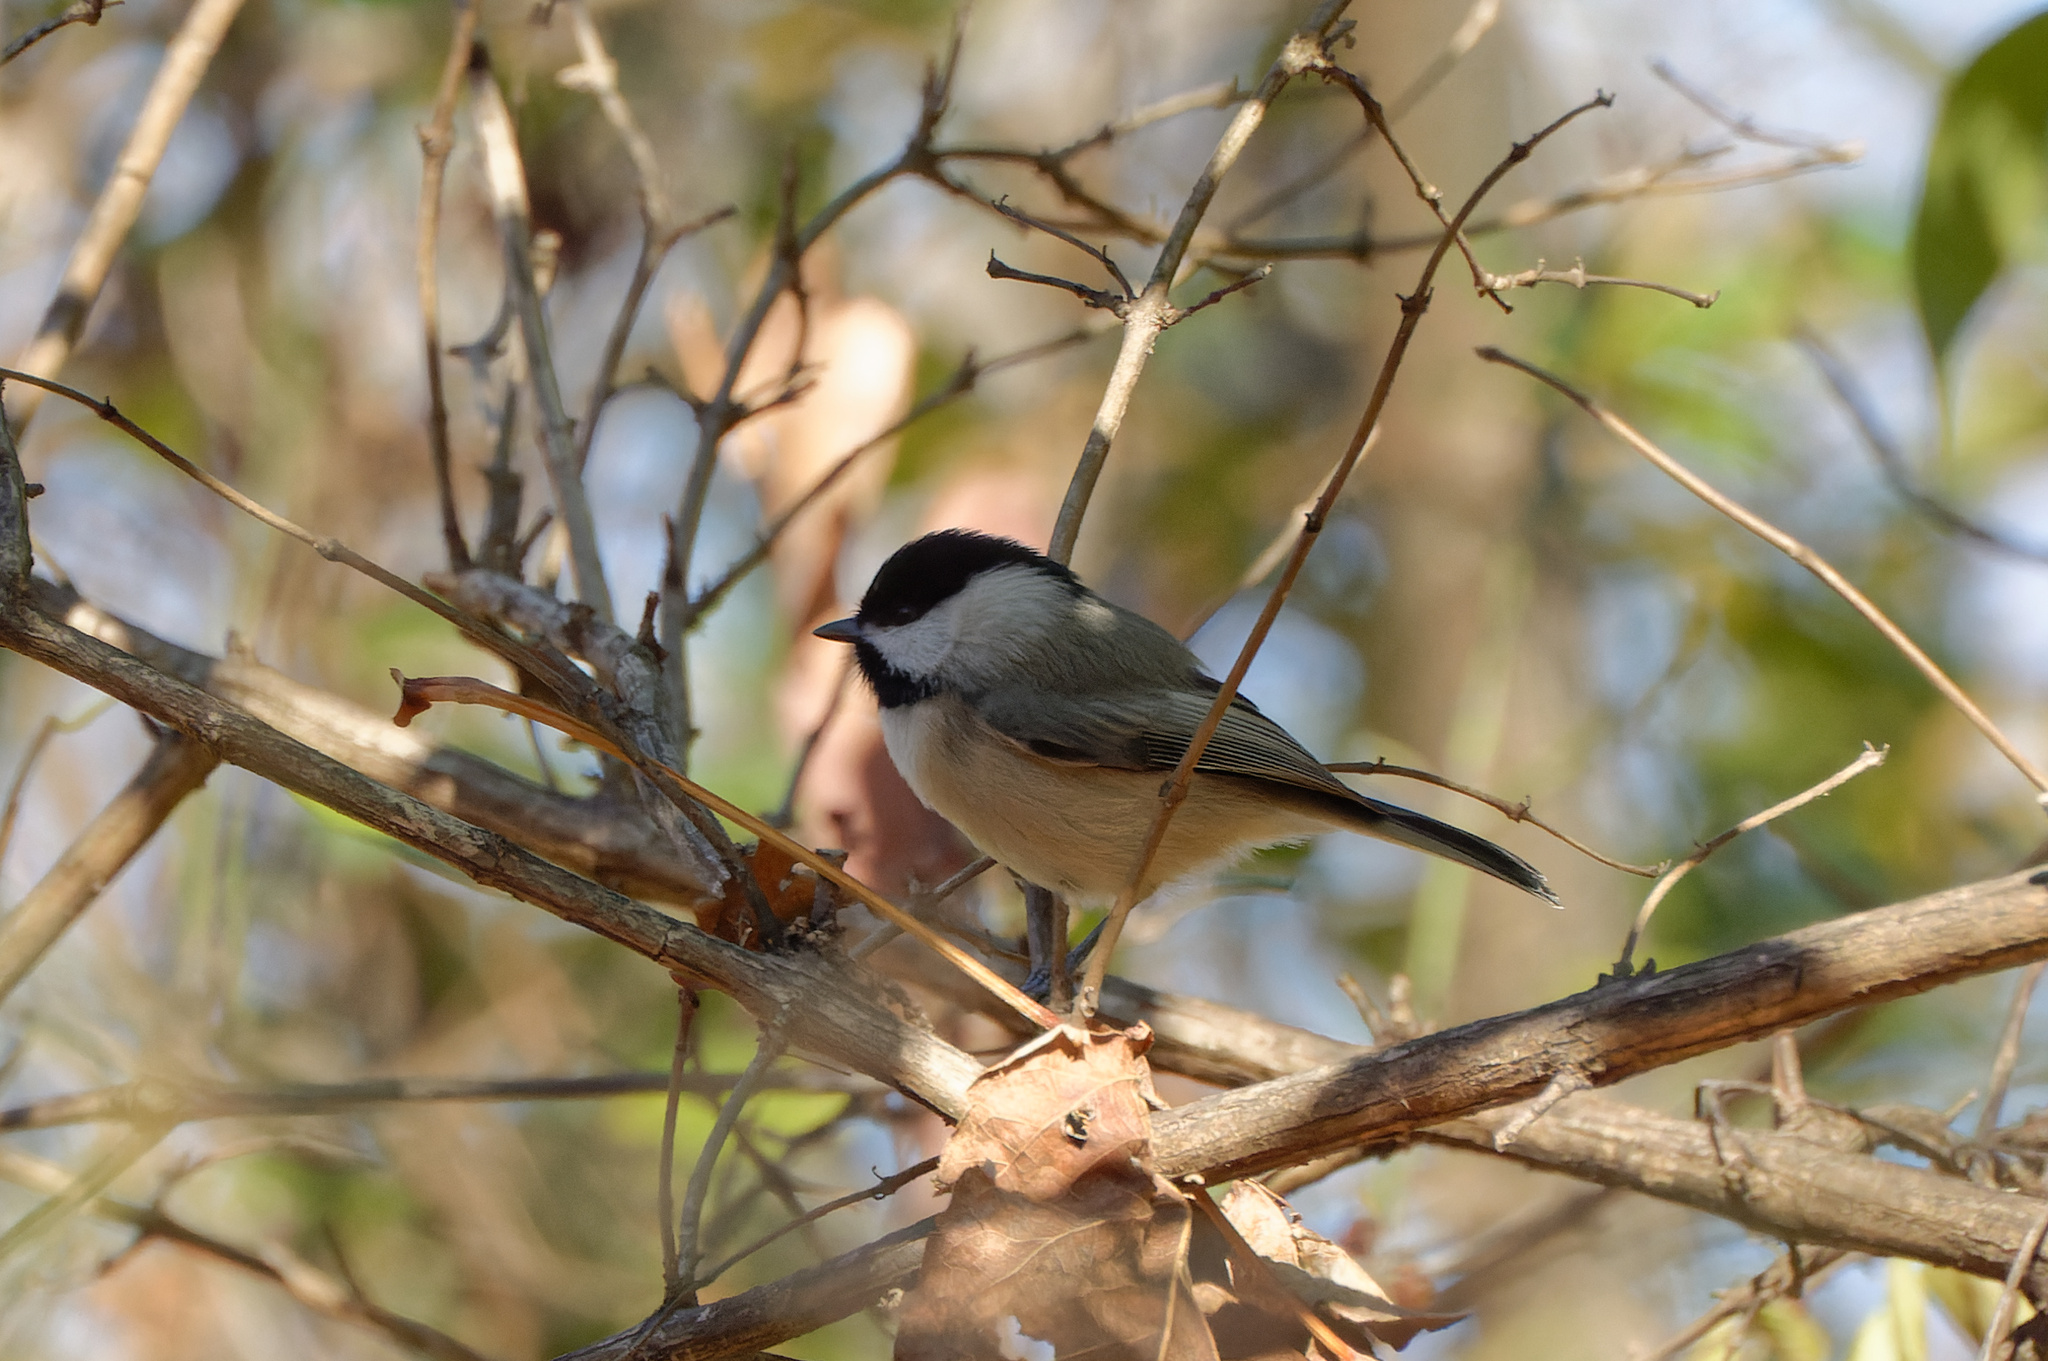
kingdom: Animalia
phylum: Chordata
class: Aves
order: Passeriformes
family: Paridae
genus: Poecile
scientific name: Poecile carolinensis
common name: Carolina chickadee
